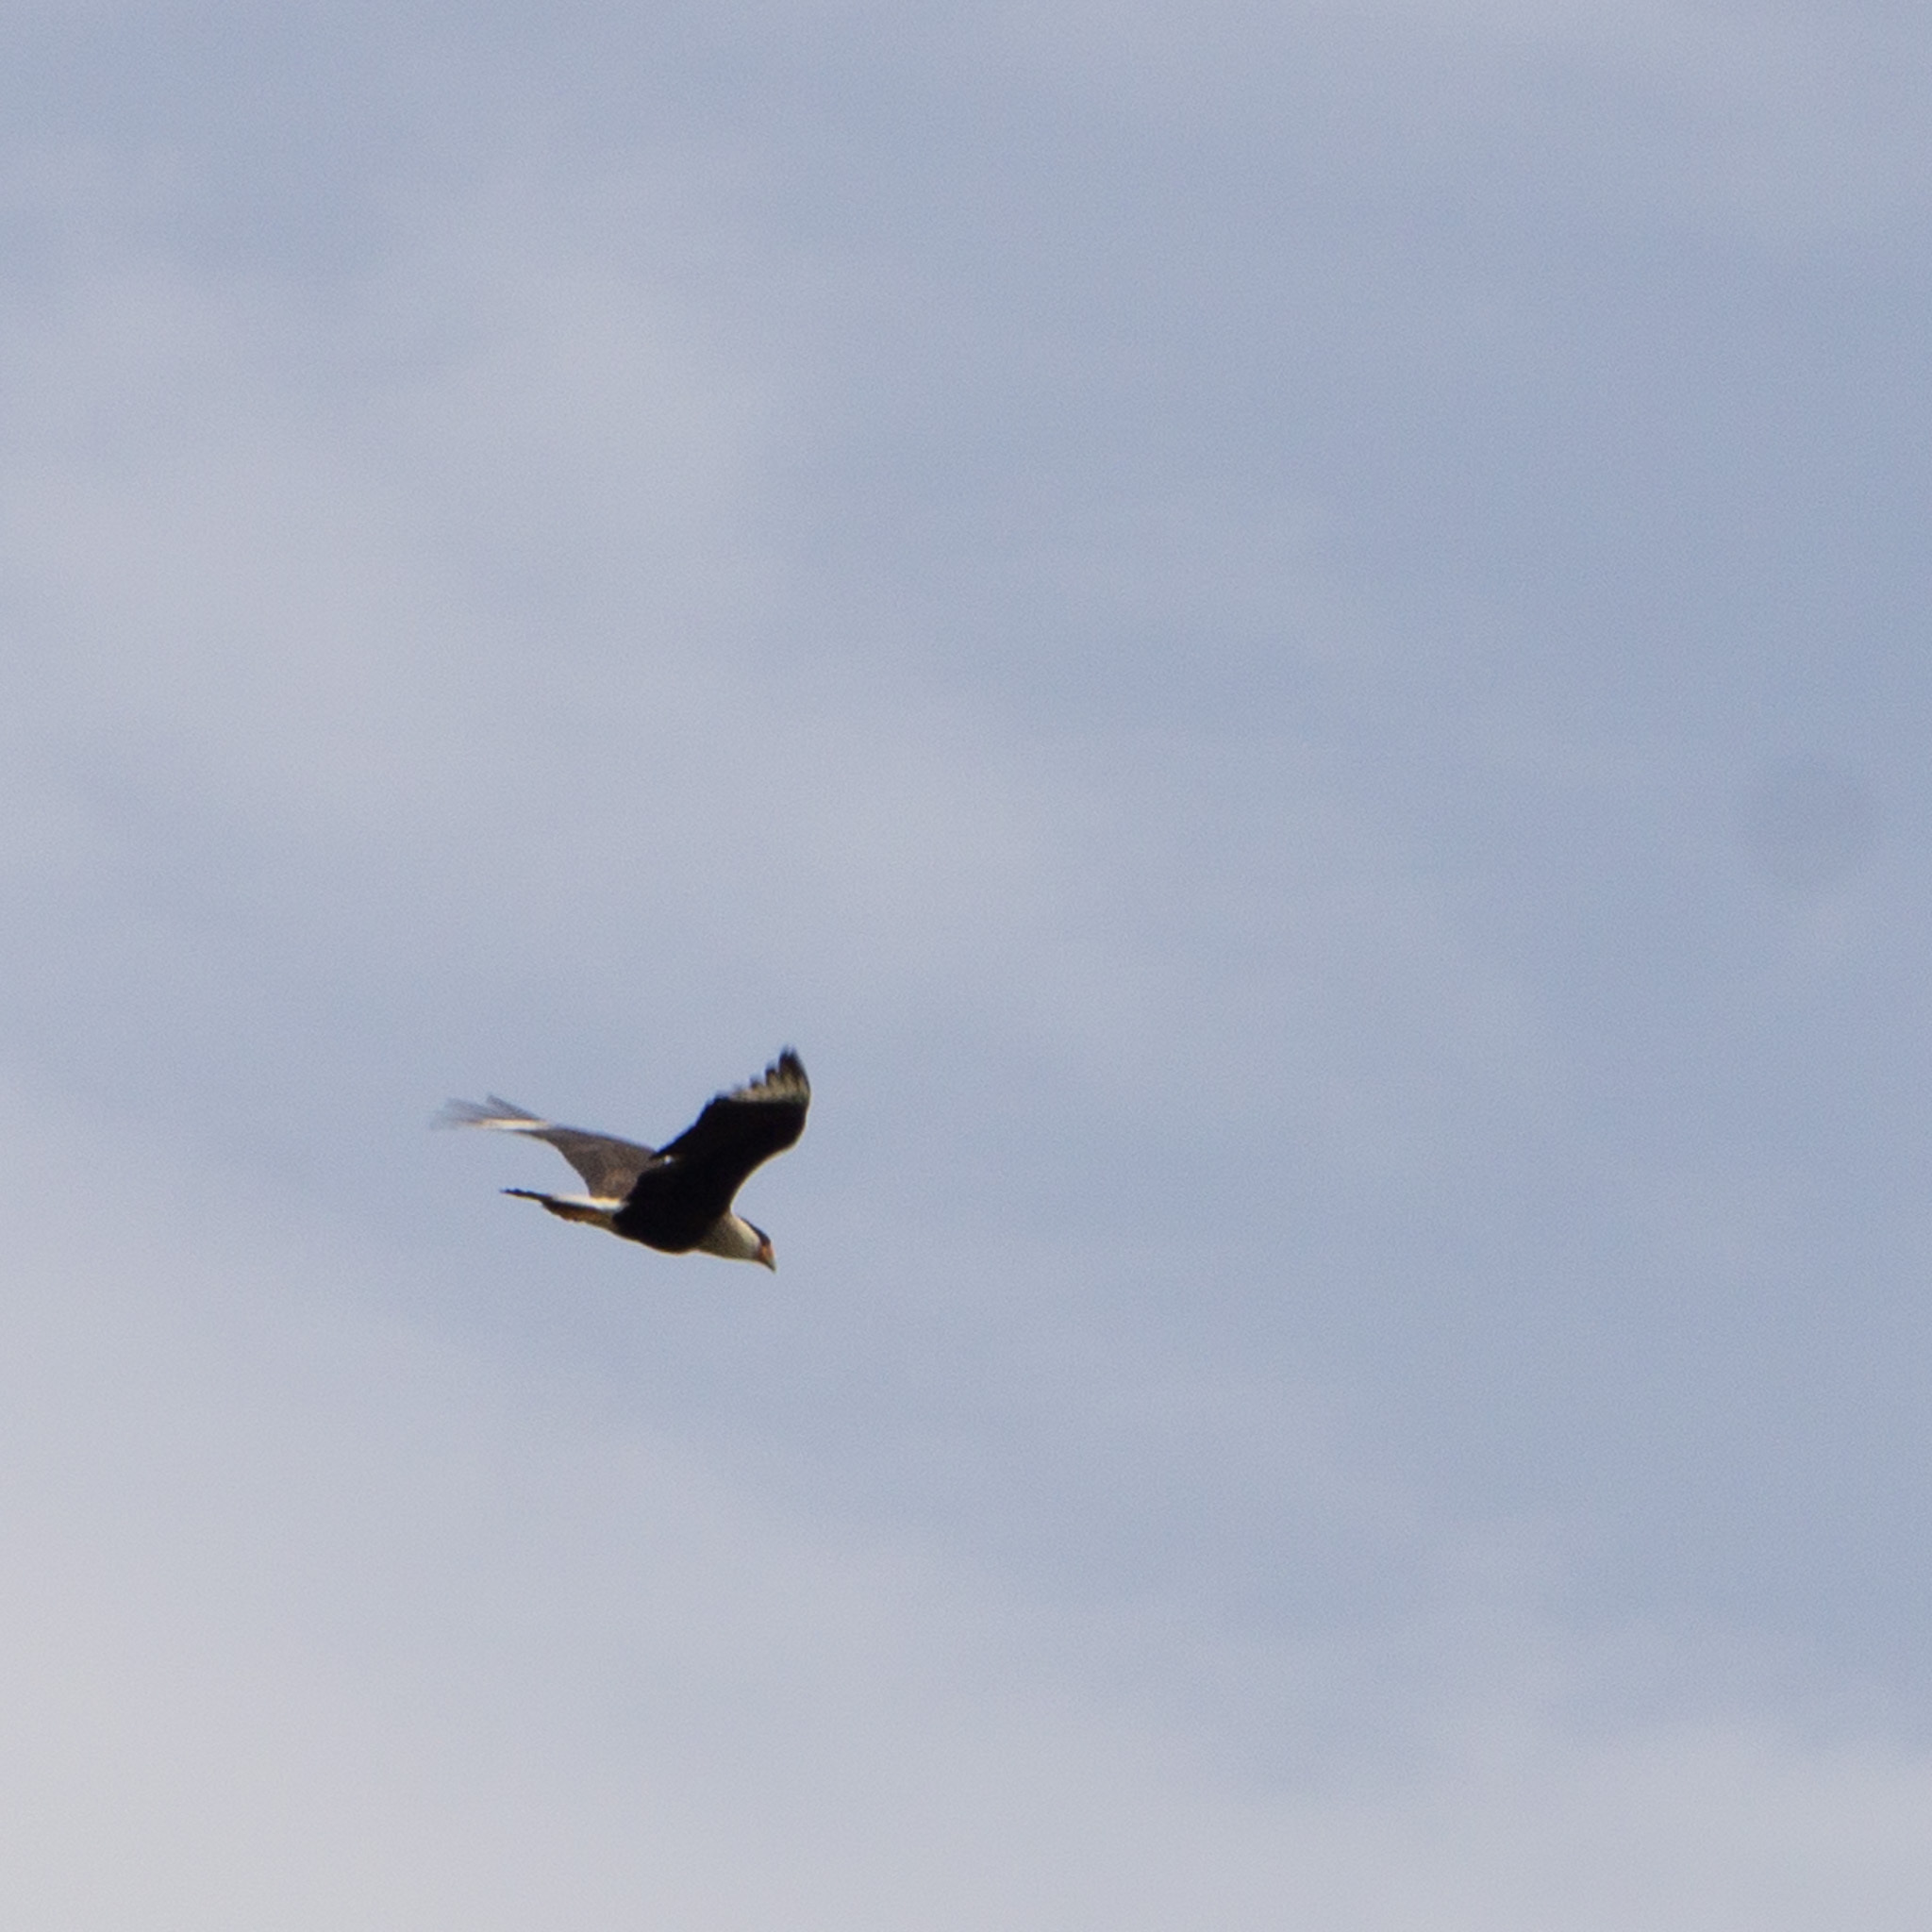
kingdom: Animalia
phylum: Chordata
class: Aves
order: Falconiformes
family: Falconidae
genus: Caracara
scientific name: Caracara plancus
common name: Southern caracara
